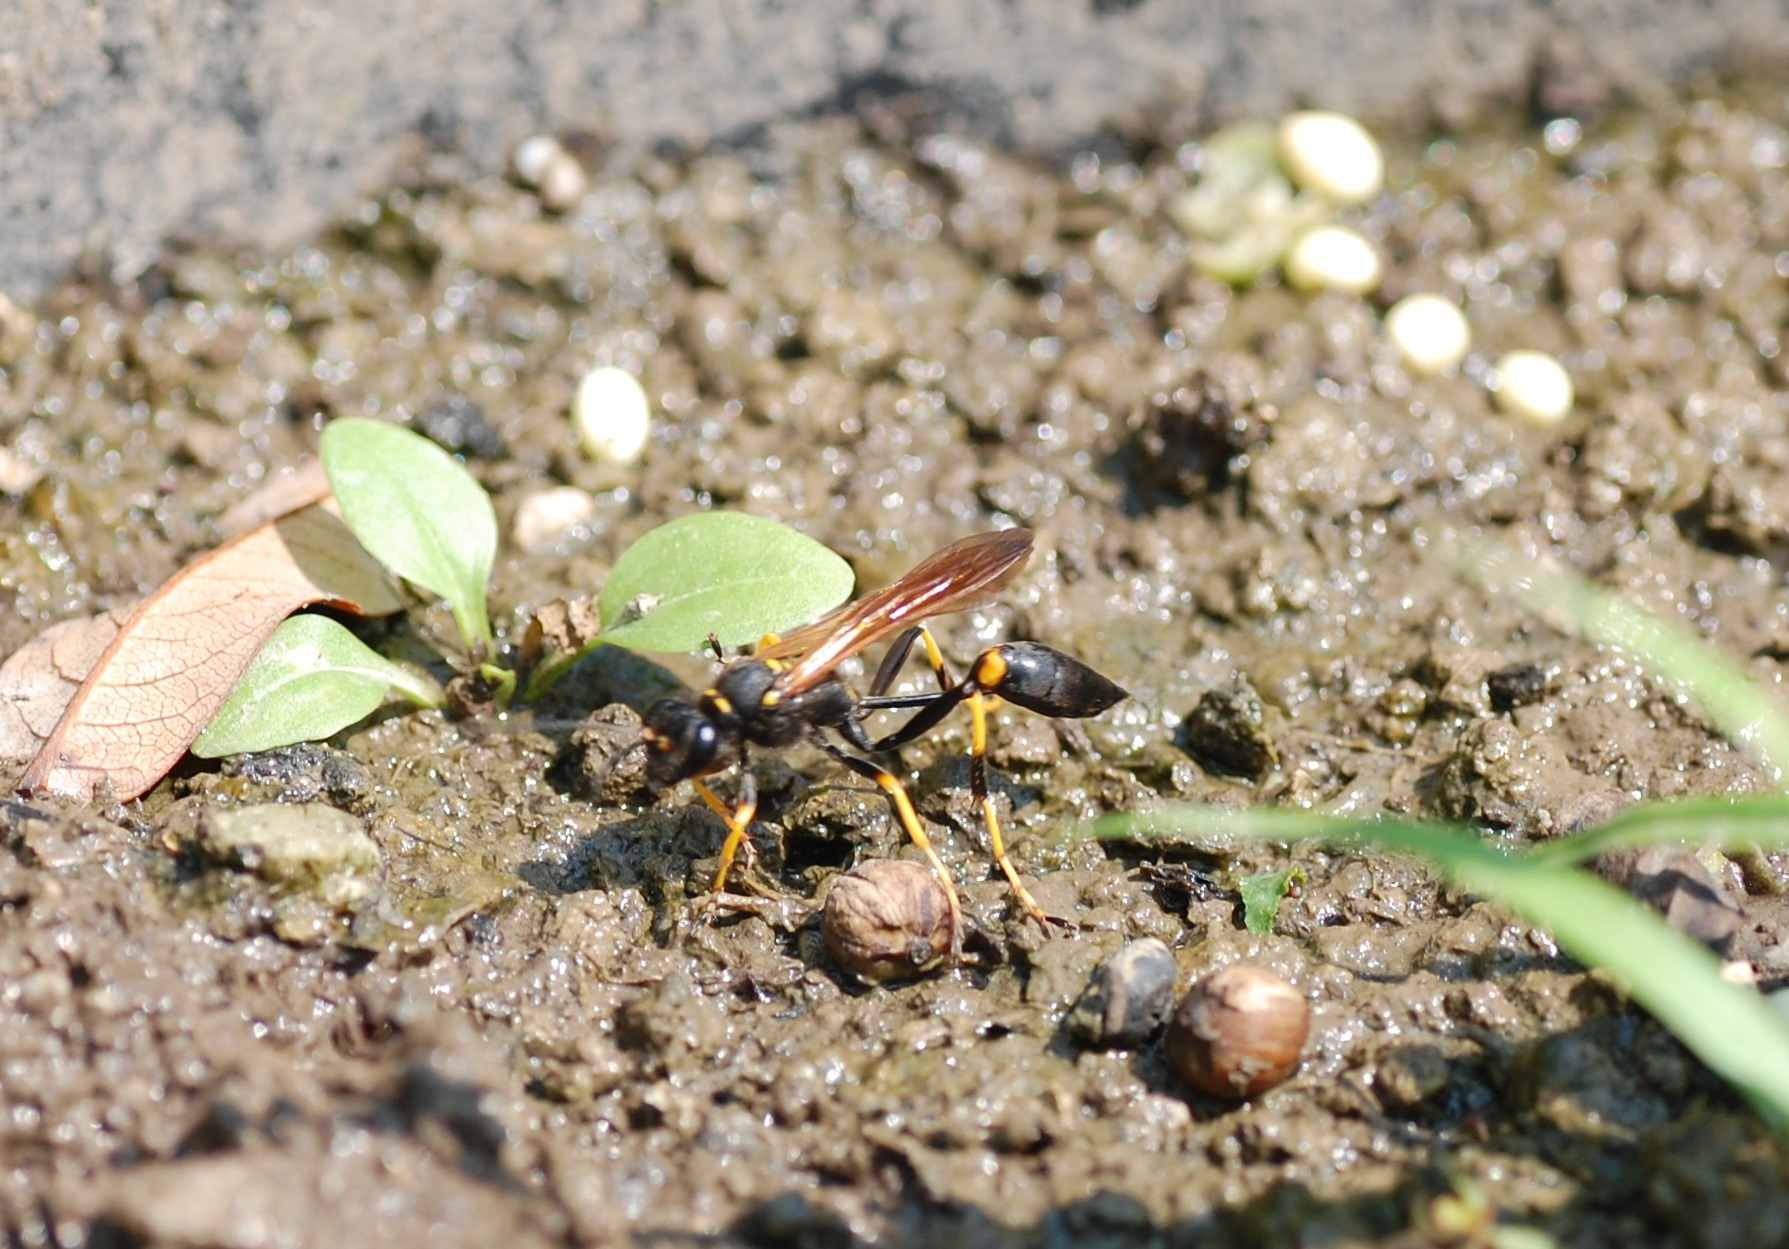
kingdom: Animalia
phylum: Arthropoda
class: Insecta
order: Hymenoptera
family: Sphecidae
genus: Sceliphron
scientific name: Sceliphron caementarium
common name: Mud dauber
